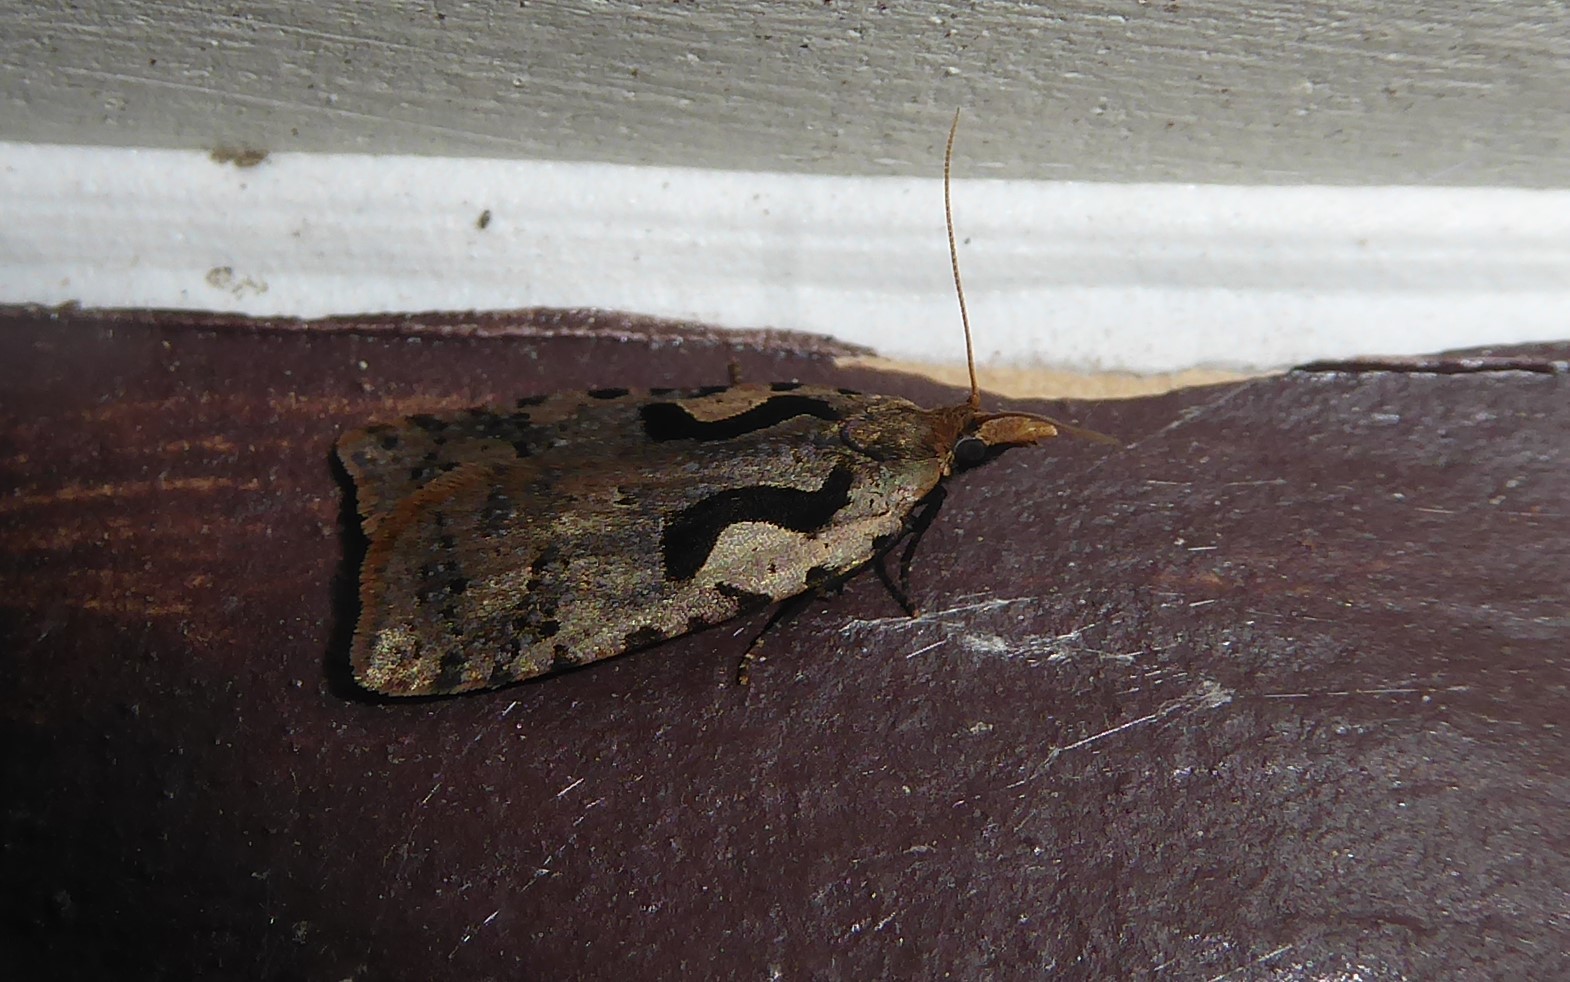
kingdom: Animalia
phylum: Arthropoda
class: Insecta
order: Lepidoptera
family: Tortricidae
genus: Cnephasia
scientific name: Cnephasia jactatana
